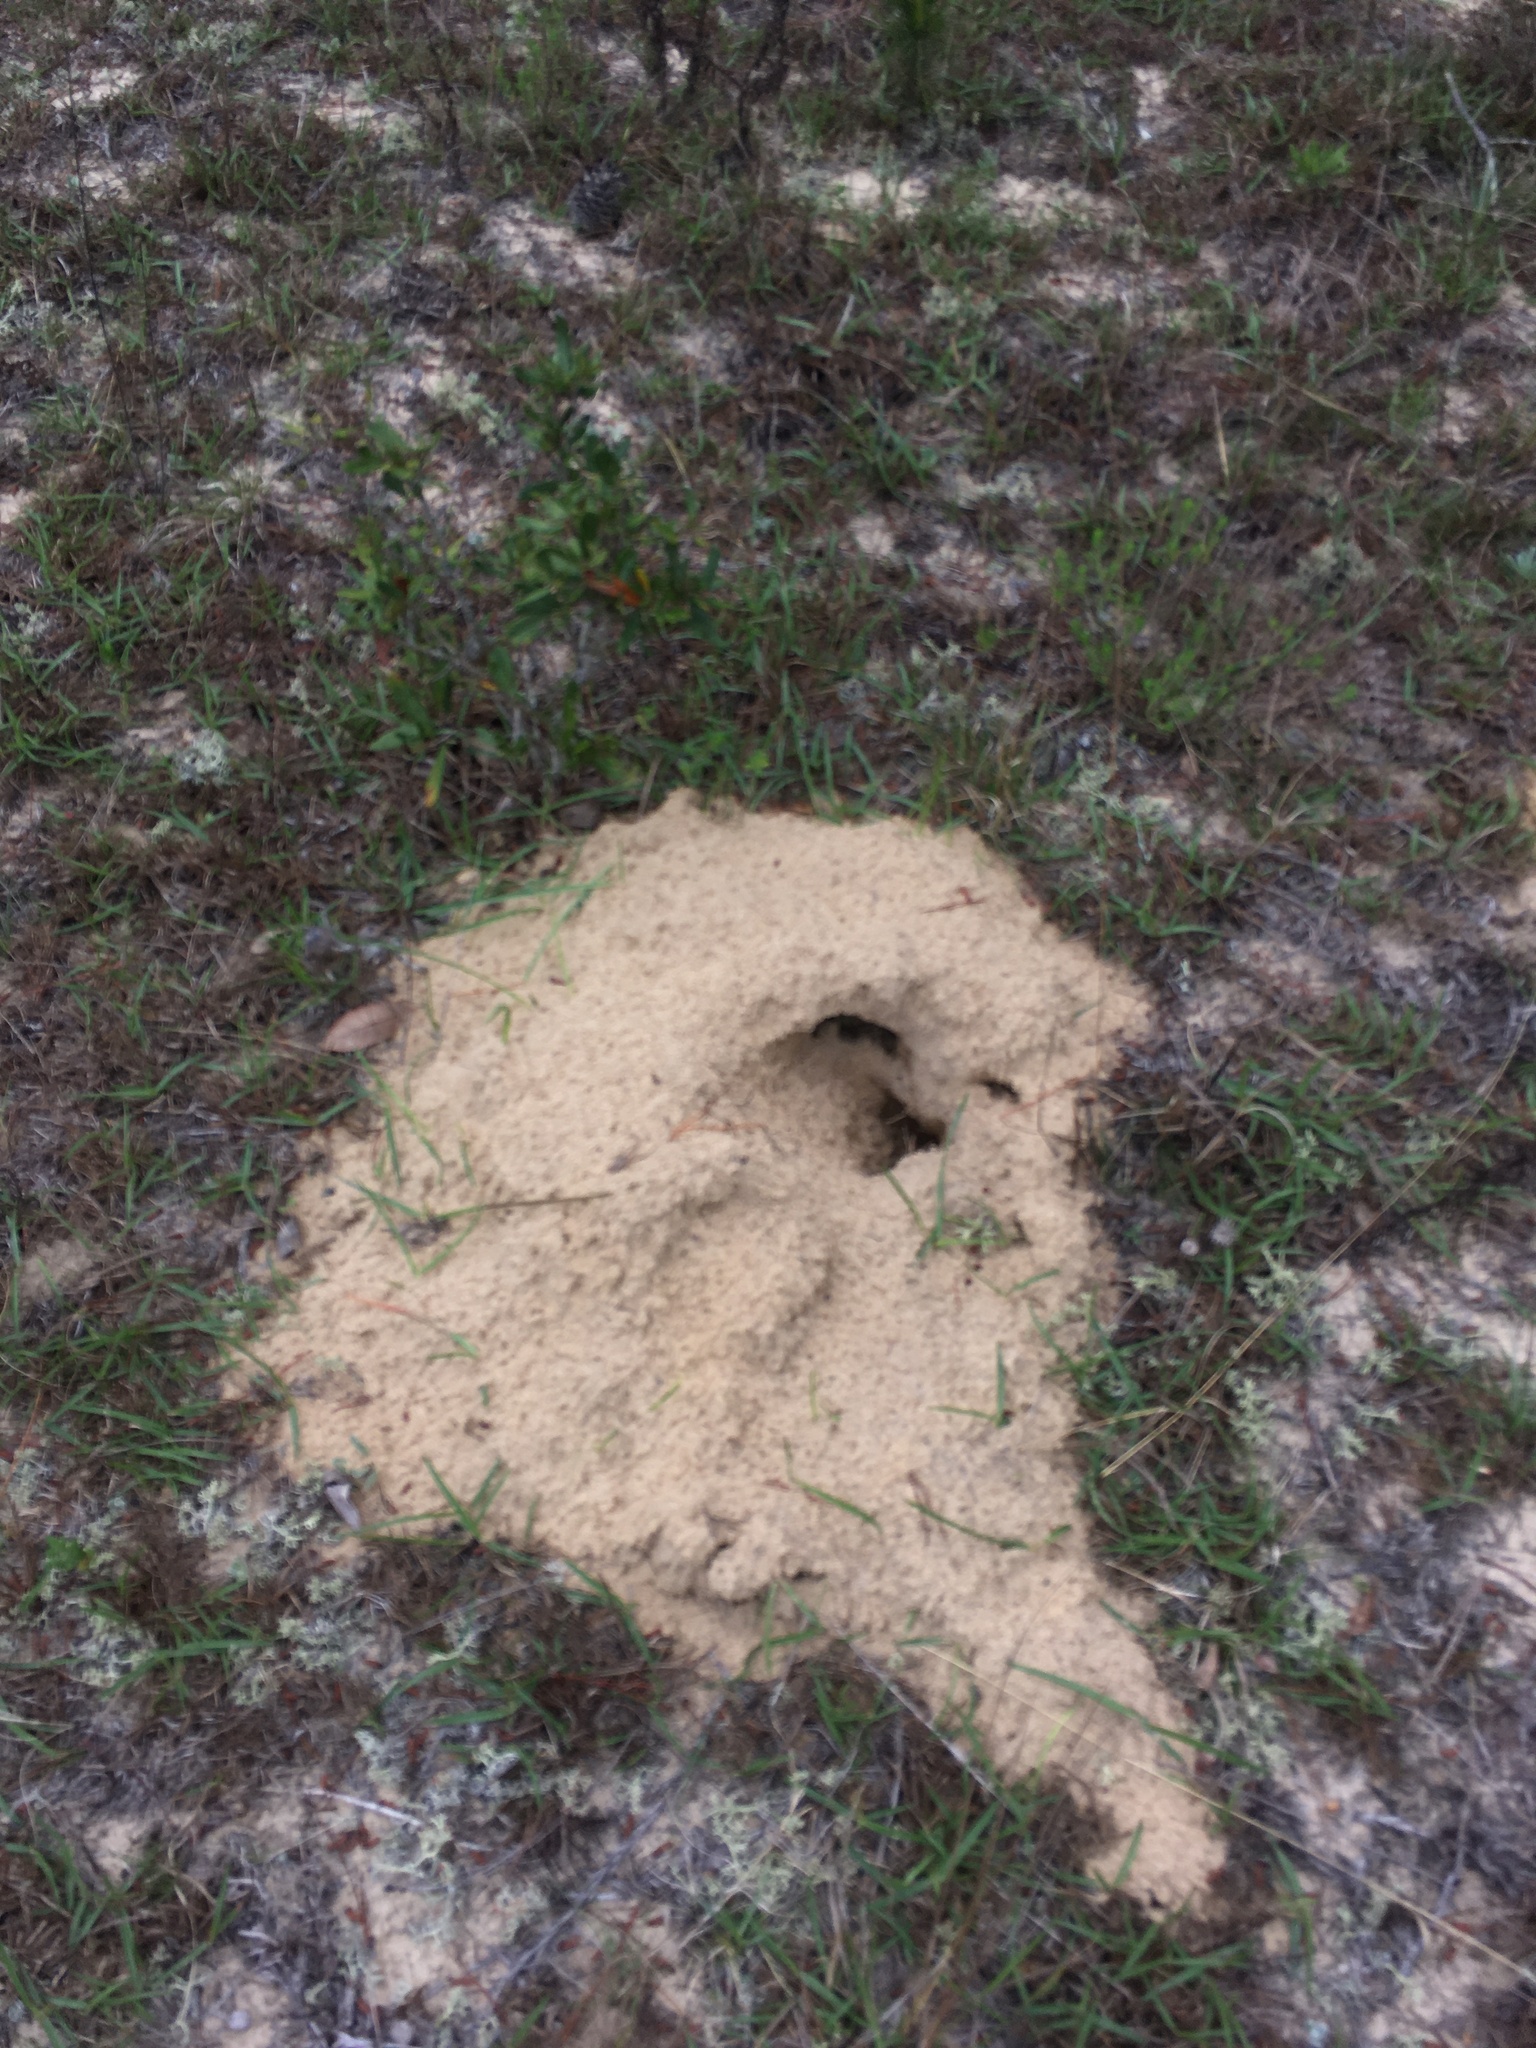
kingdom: Animalia
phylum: Chordata
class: Mammalia
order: Rodentia
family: Geomyidae
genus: Geomys
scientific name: Geomys pinetis
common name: Southeastern pocket gopher
